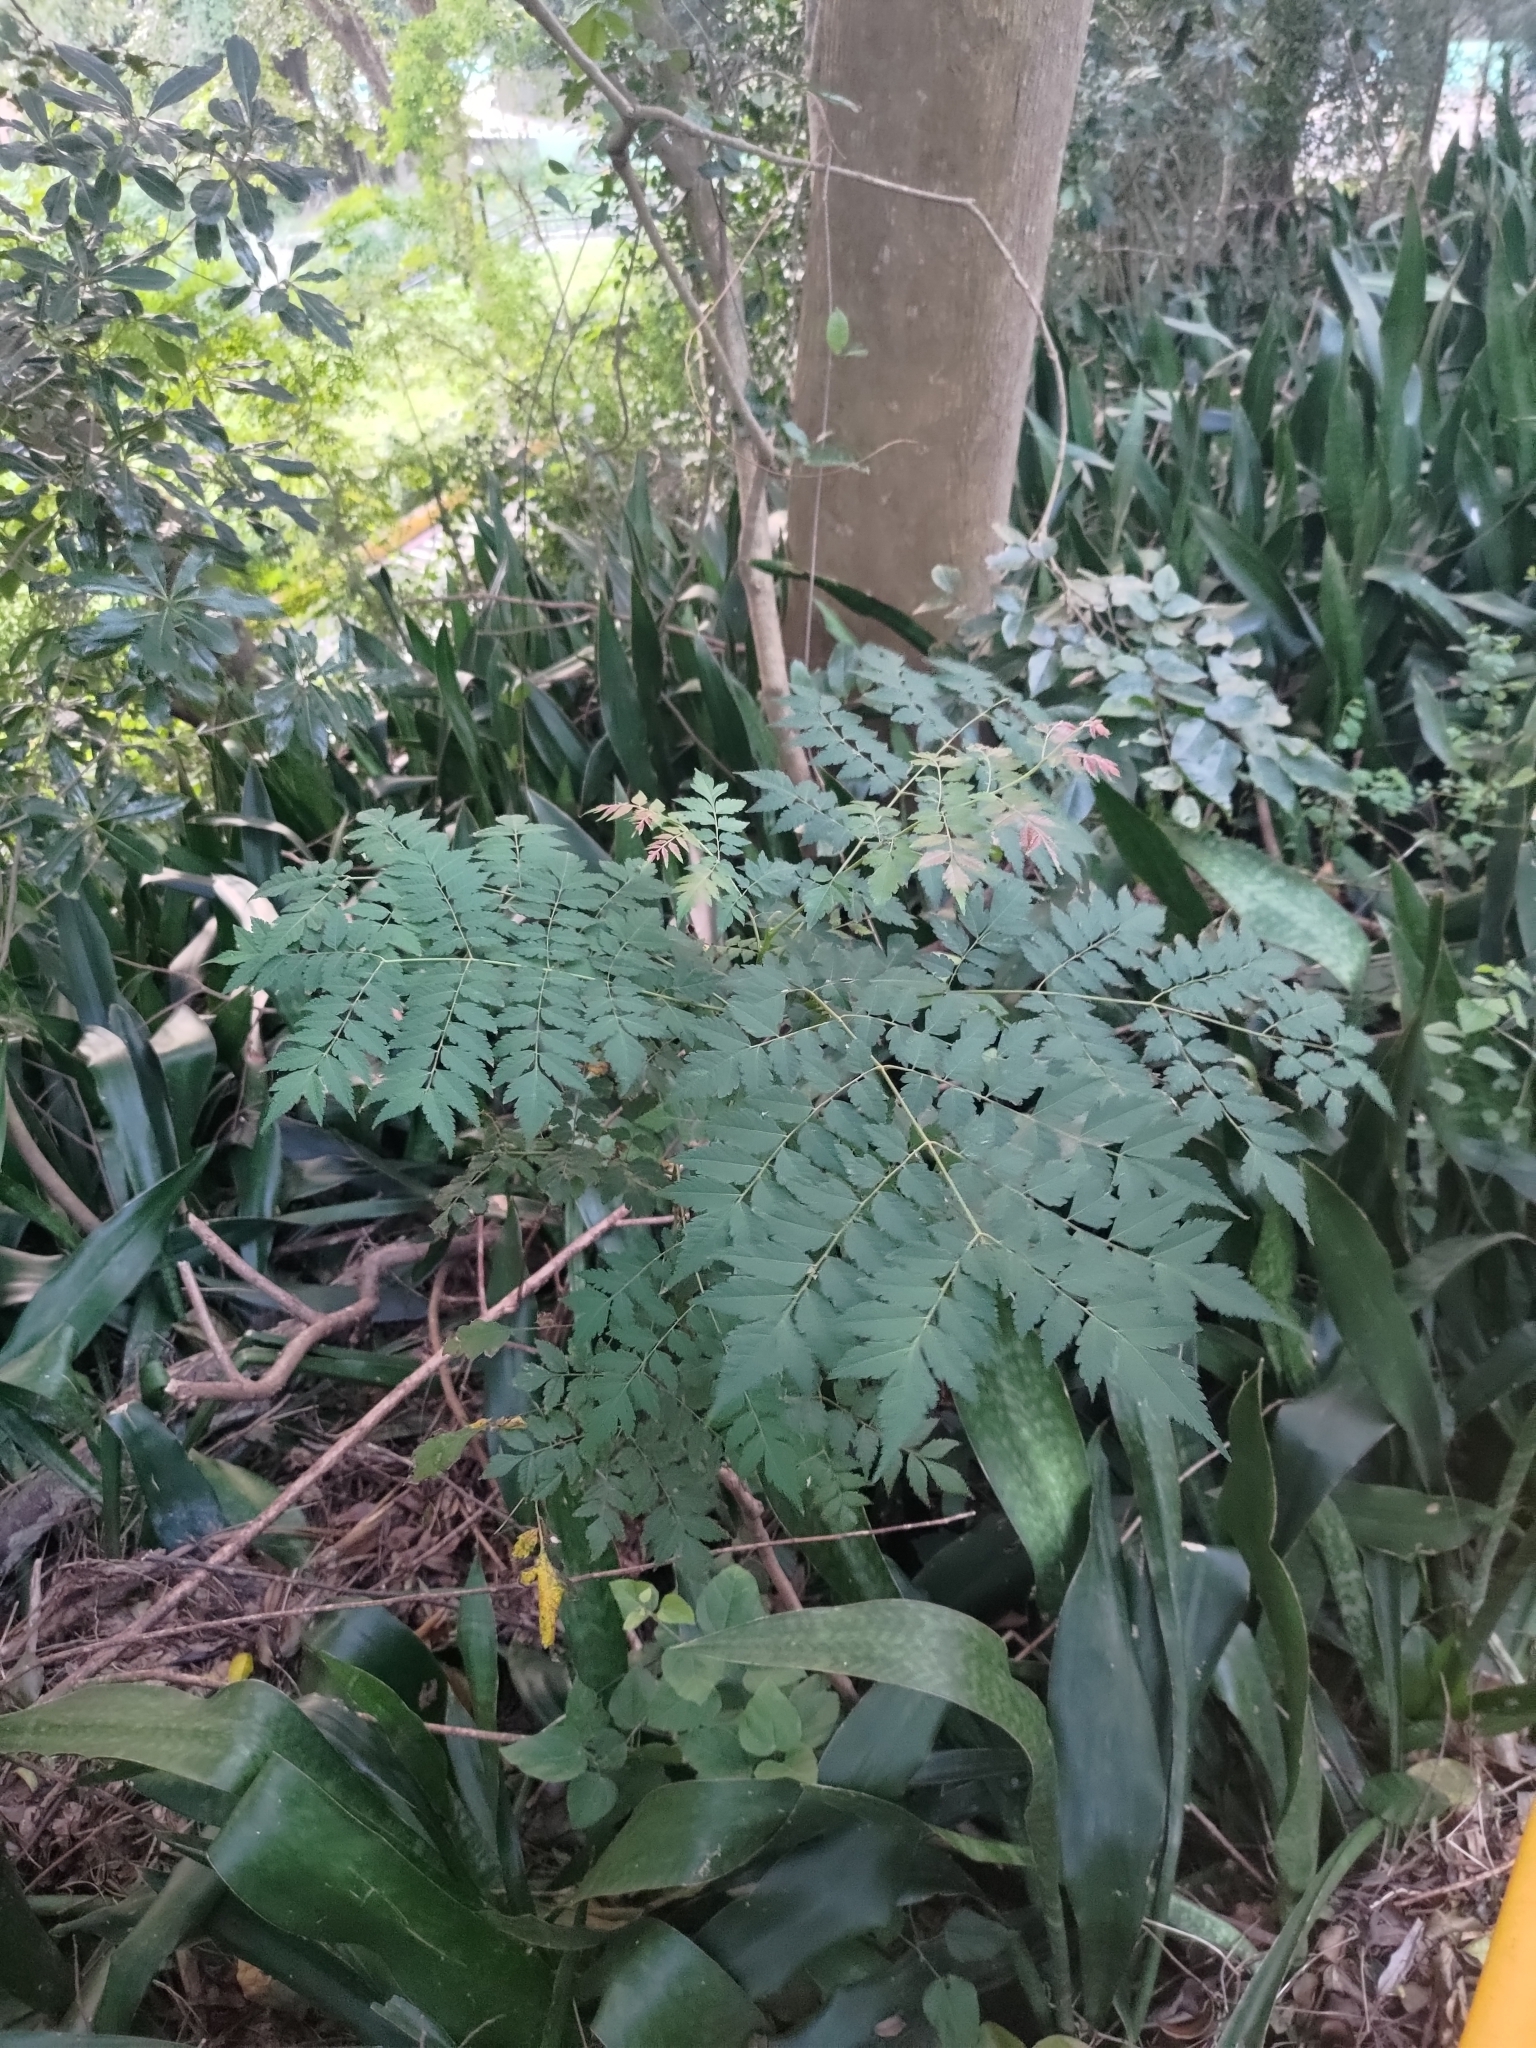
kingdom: Plantae
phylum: Tracheophyta
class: Magnoliopsida
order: Sapindales
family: Sapindaceae
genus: Koelreuteria
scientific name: Koelreuteria elegans
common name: Chinese flame tree
